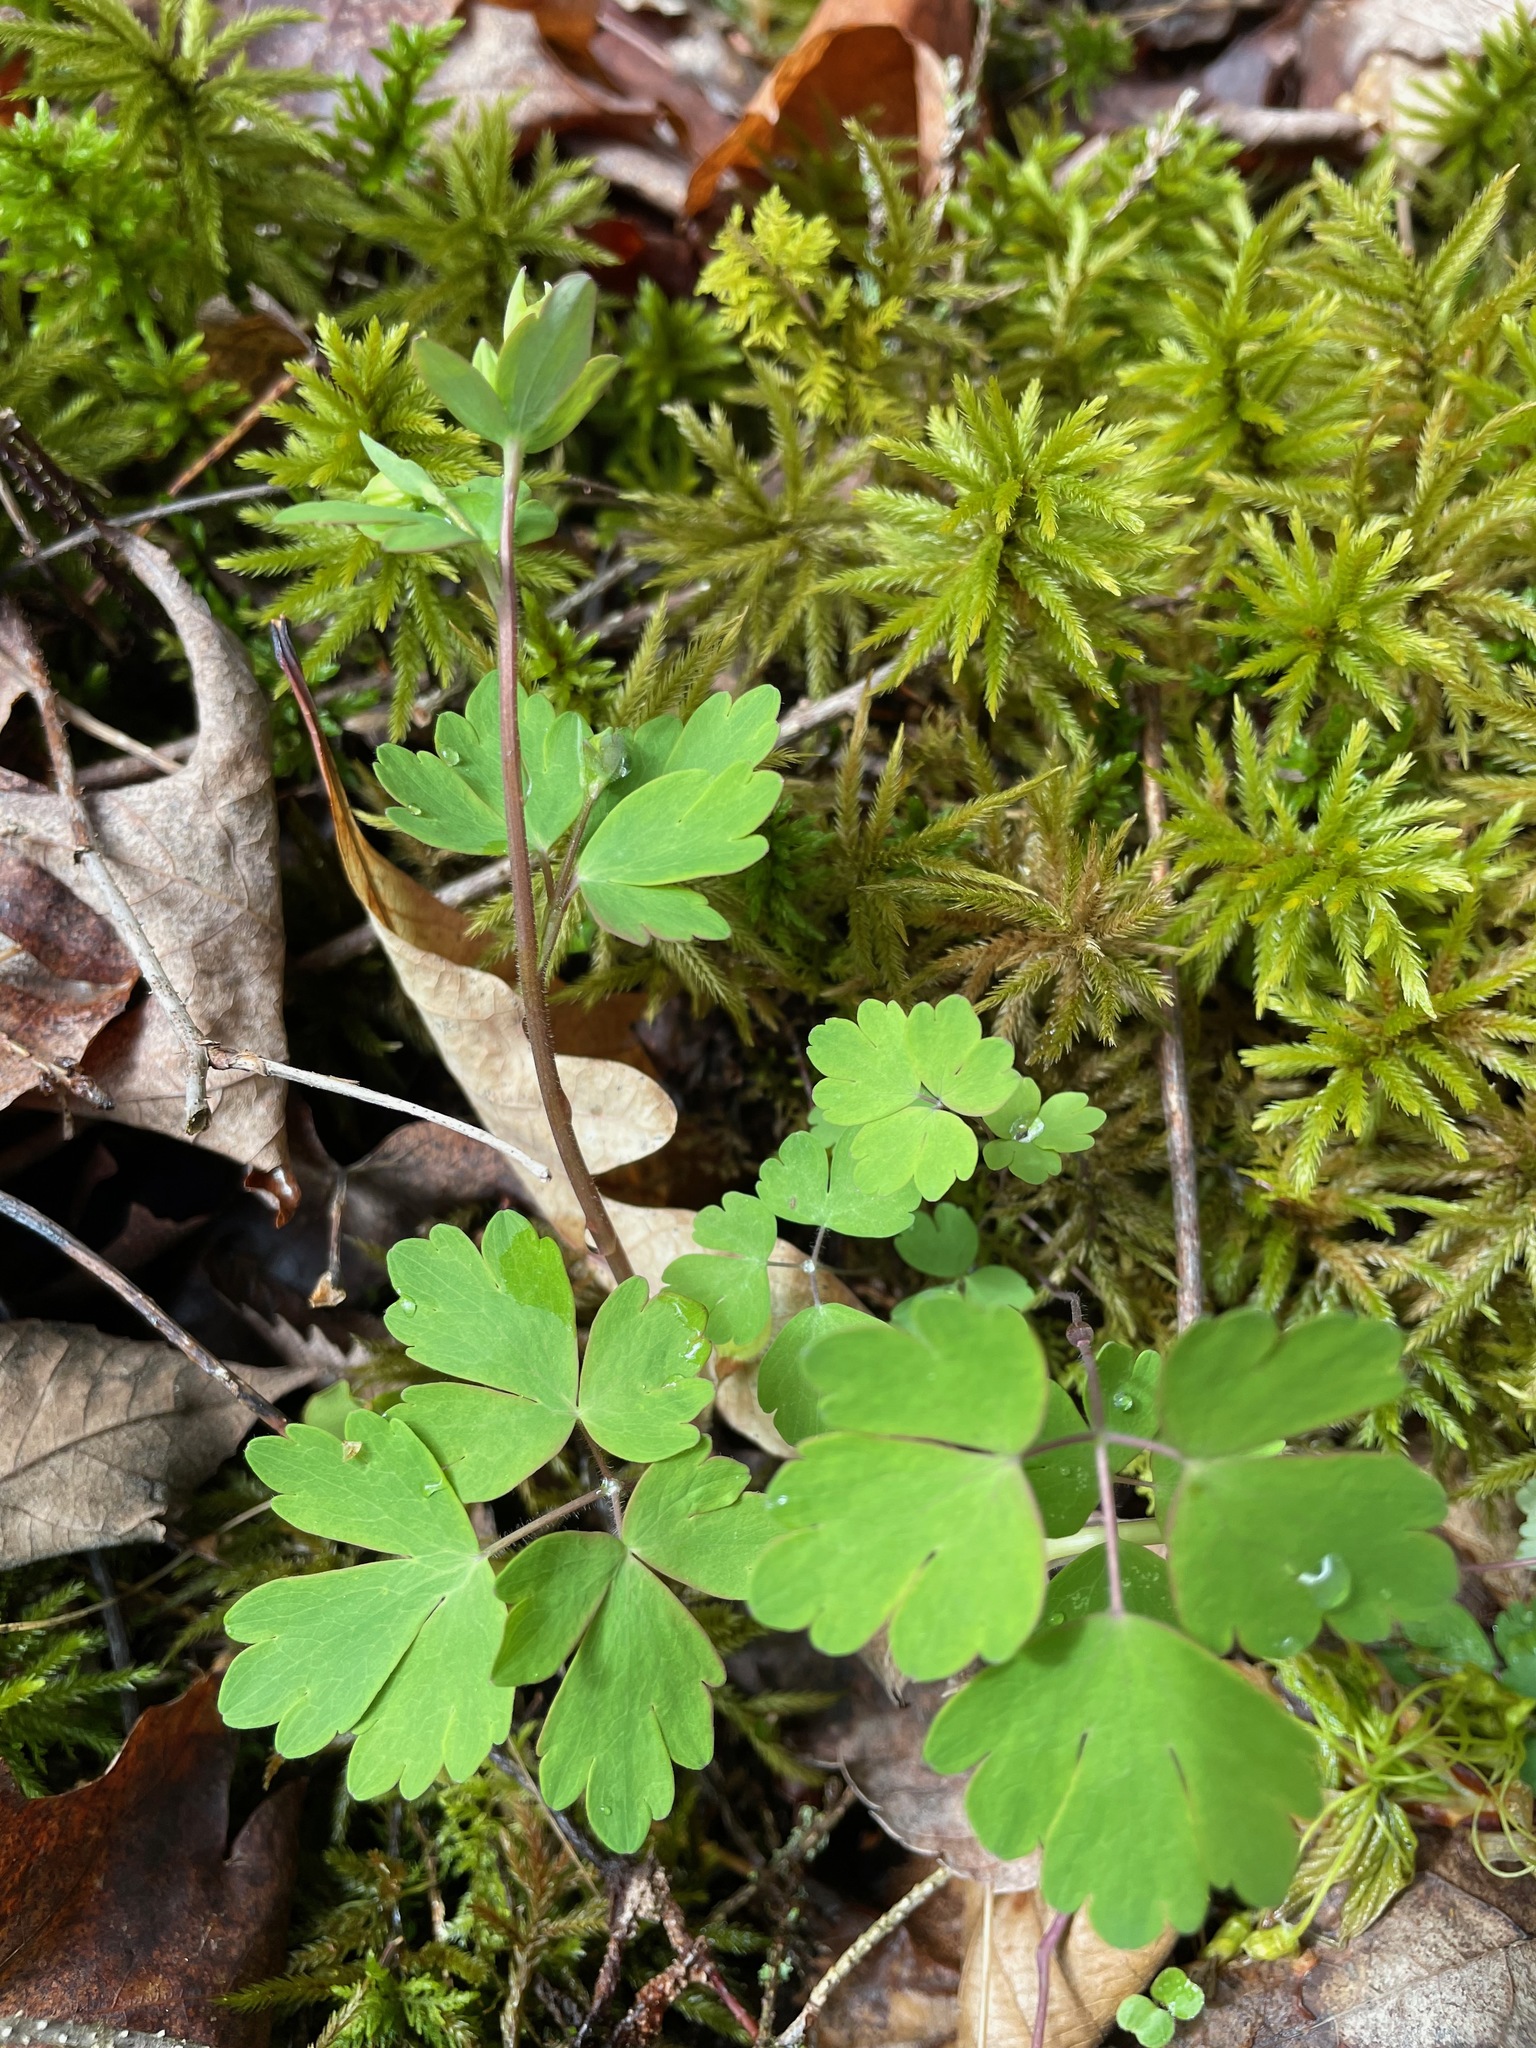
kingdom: Plantae
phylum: Tracheophyta
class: Magnoliopsida
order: Ranunculales
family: Ranunculaceae
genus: Aquilegia
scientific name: Aquilegia canadensis
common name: American columbine
